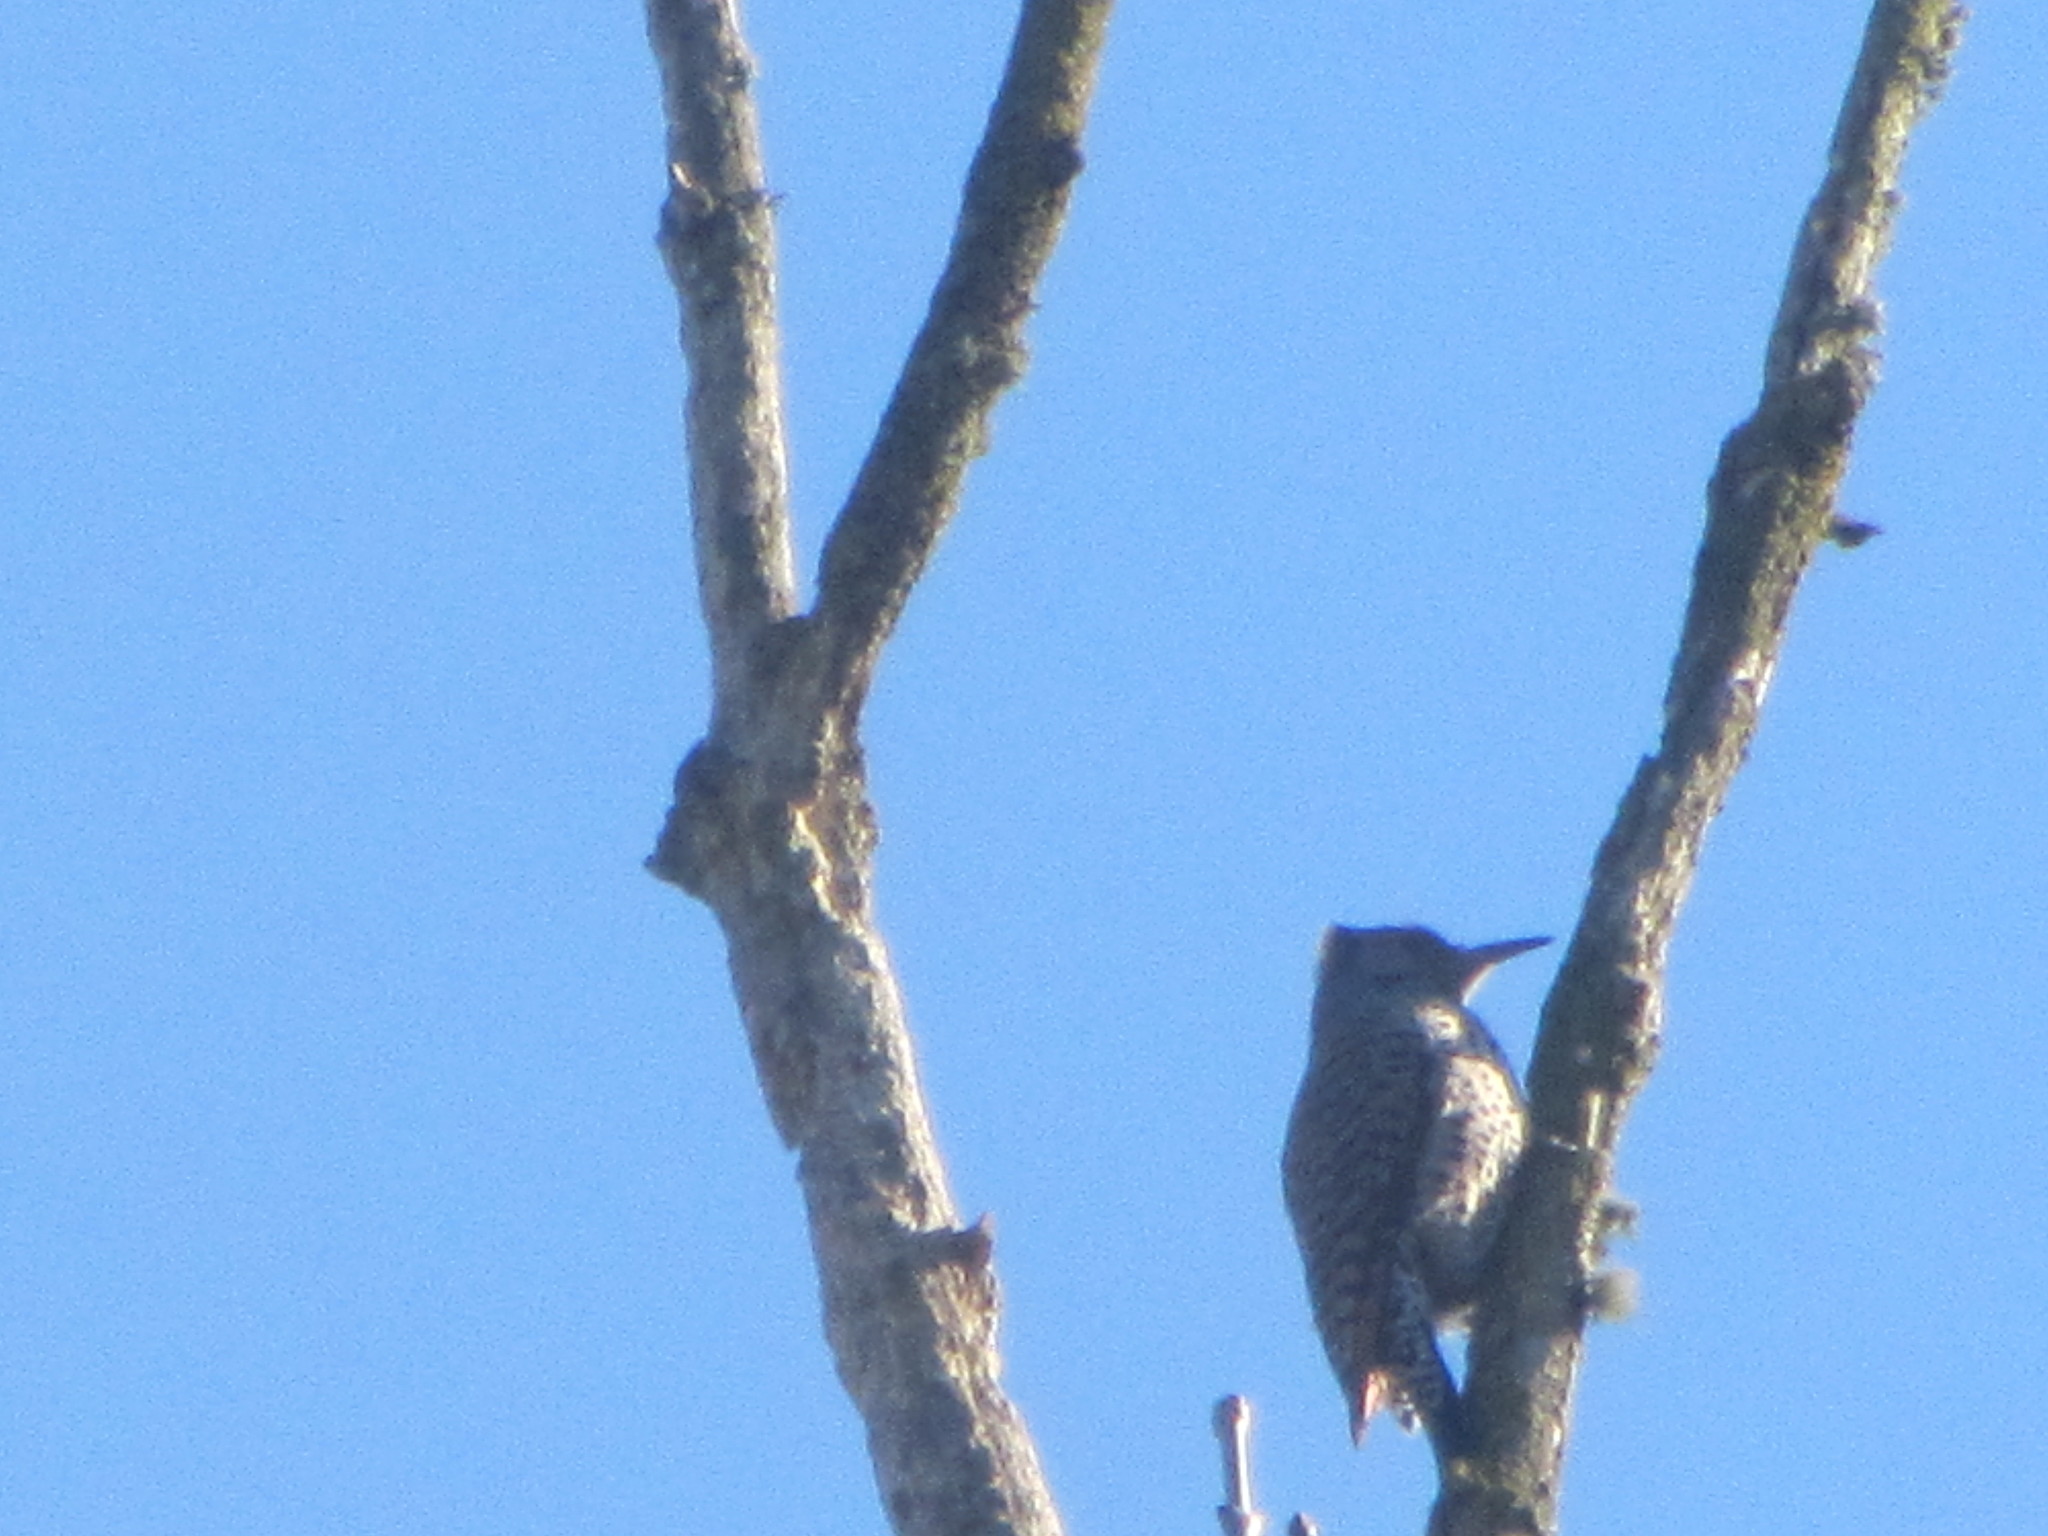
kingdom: Animalia
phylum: Chordata
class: Aves
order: Piciformes
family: Picidae
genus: Colaptes
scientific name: Colaptes auratus
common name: Northern flicker
